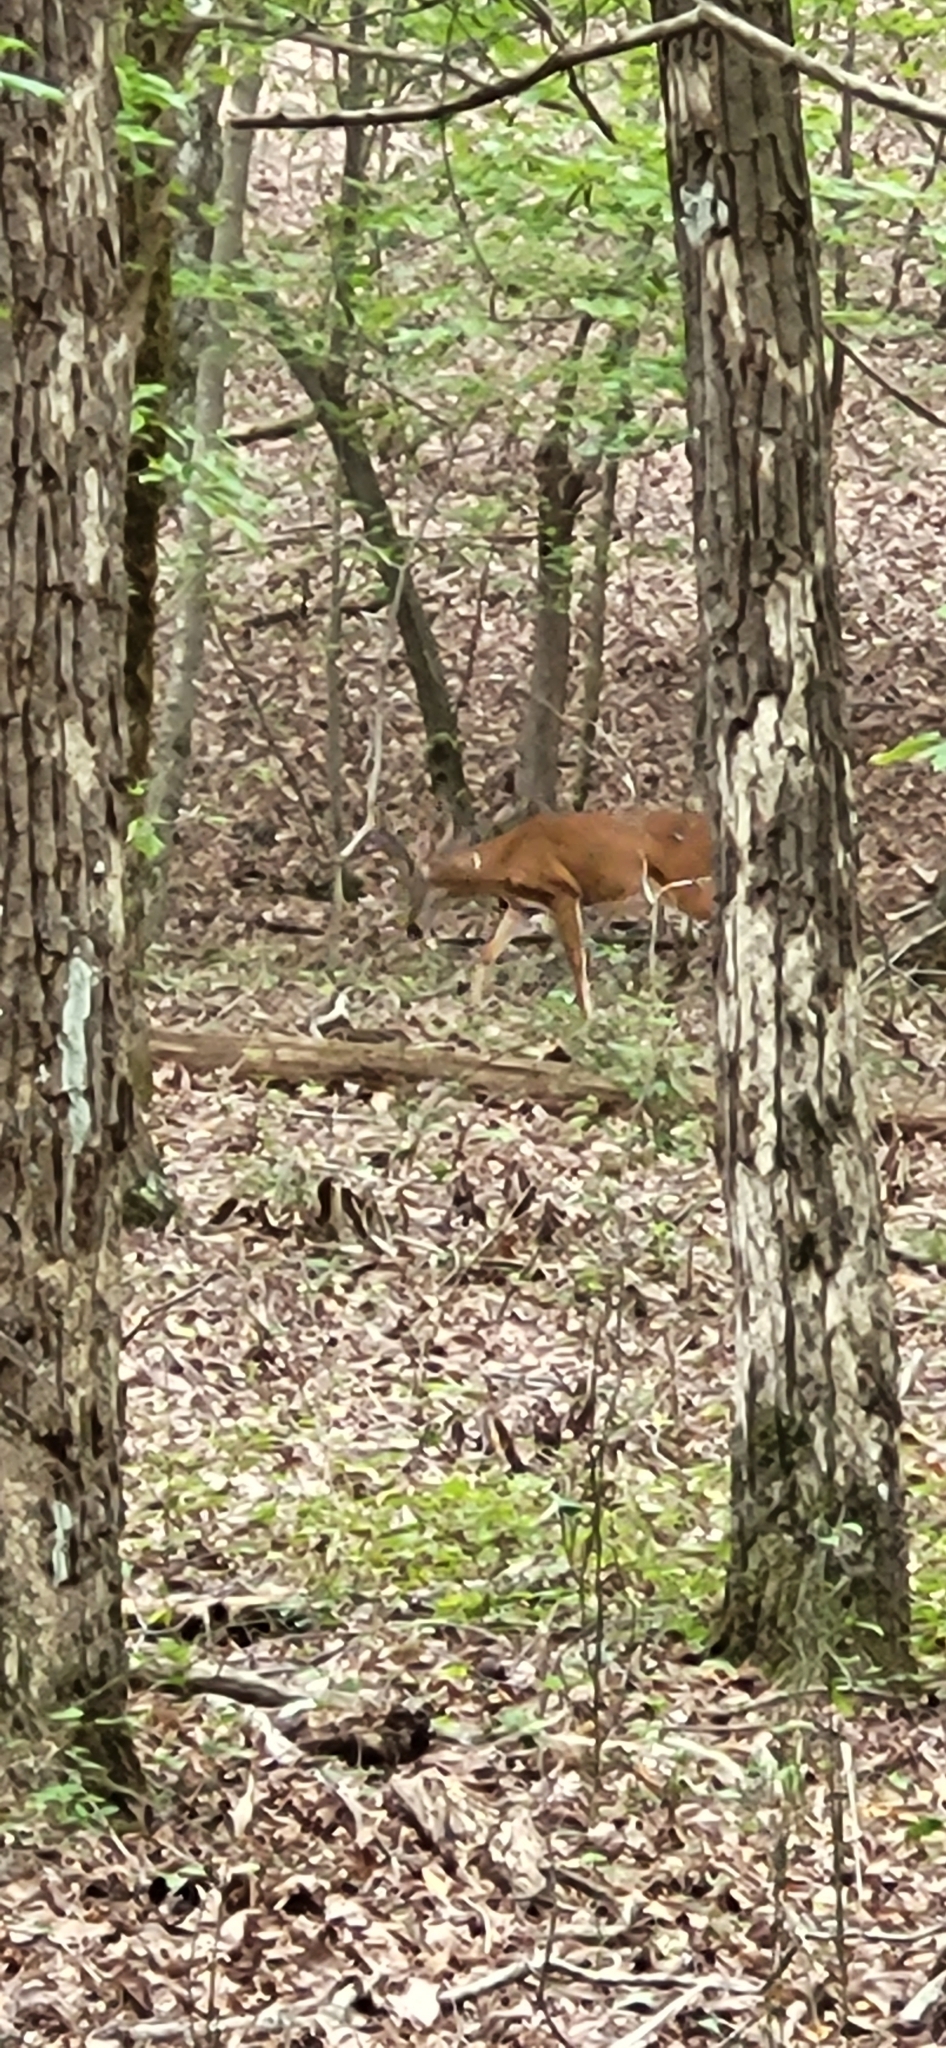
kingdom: Animalia
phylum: Chordata
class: Mammalia
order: Artiodactyla
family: Cervidae
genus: Odocoileus
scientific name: Odocoileus virginianus
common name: White-tailed deer
